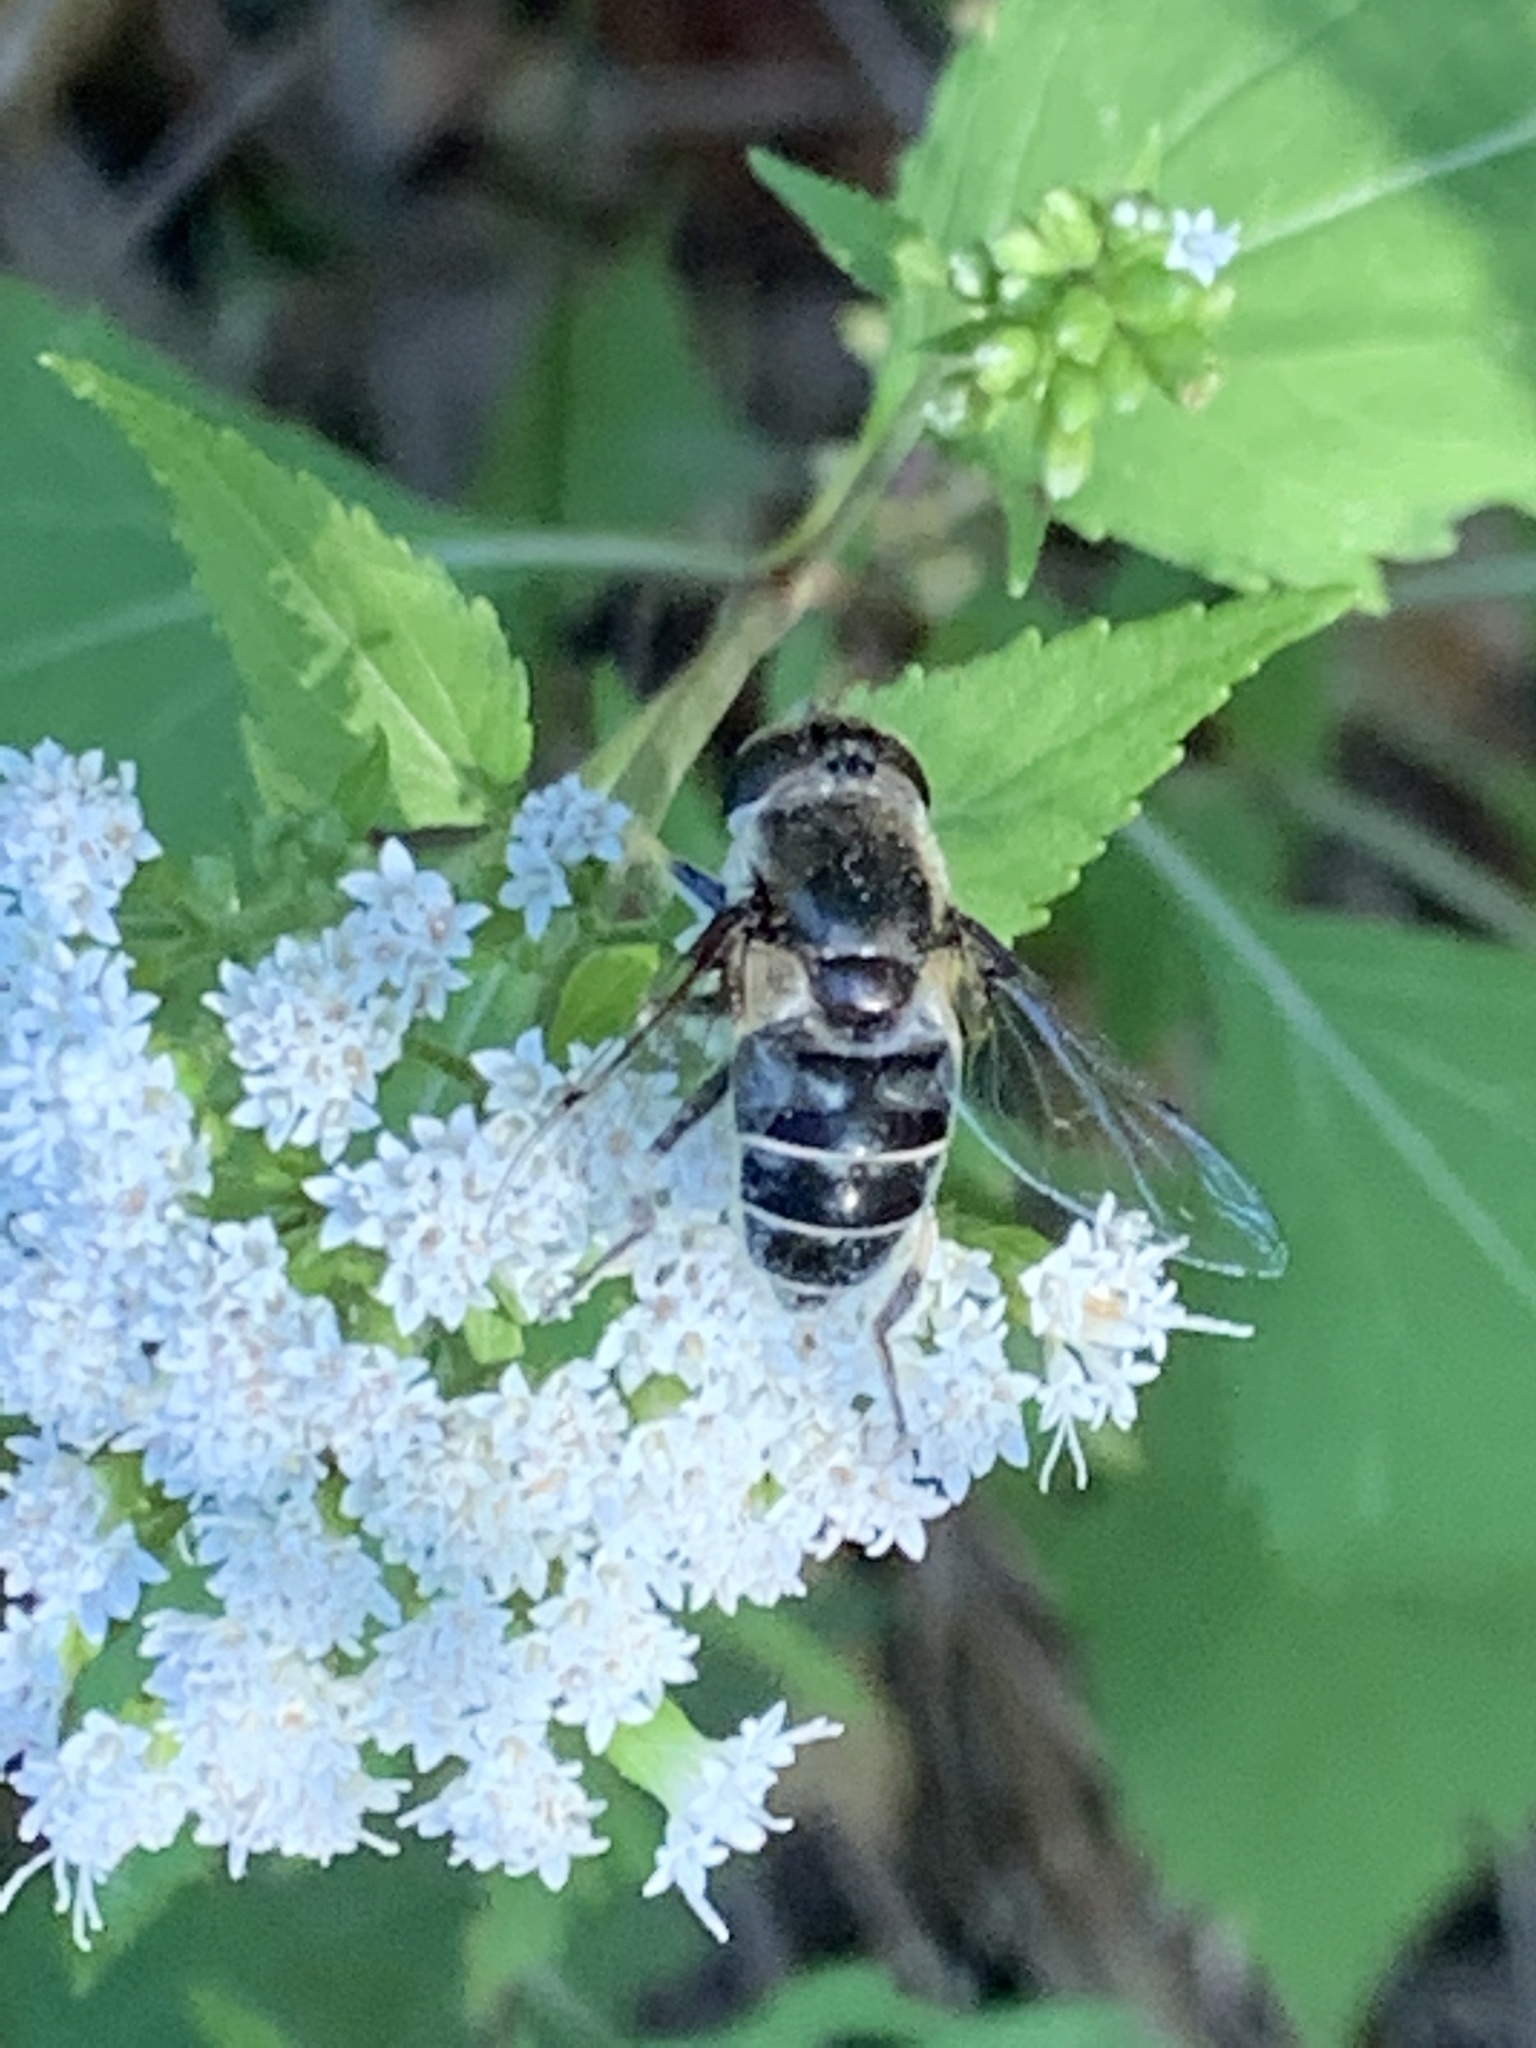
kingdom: Animalia
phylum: Arthropoda
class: Insecta
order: Diptera
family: Syrphidae
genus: Eristalis
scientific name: Eristalis dimidiata
